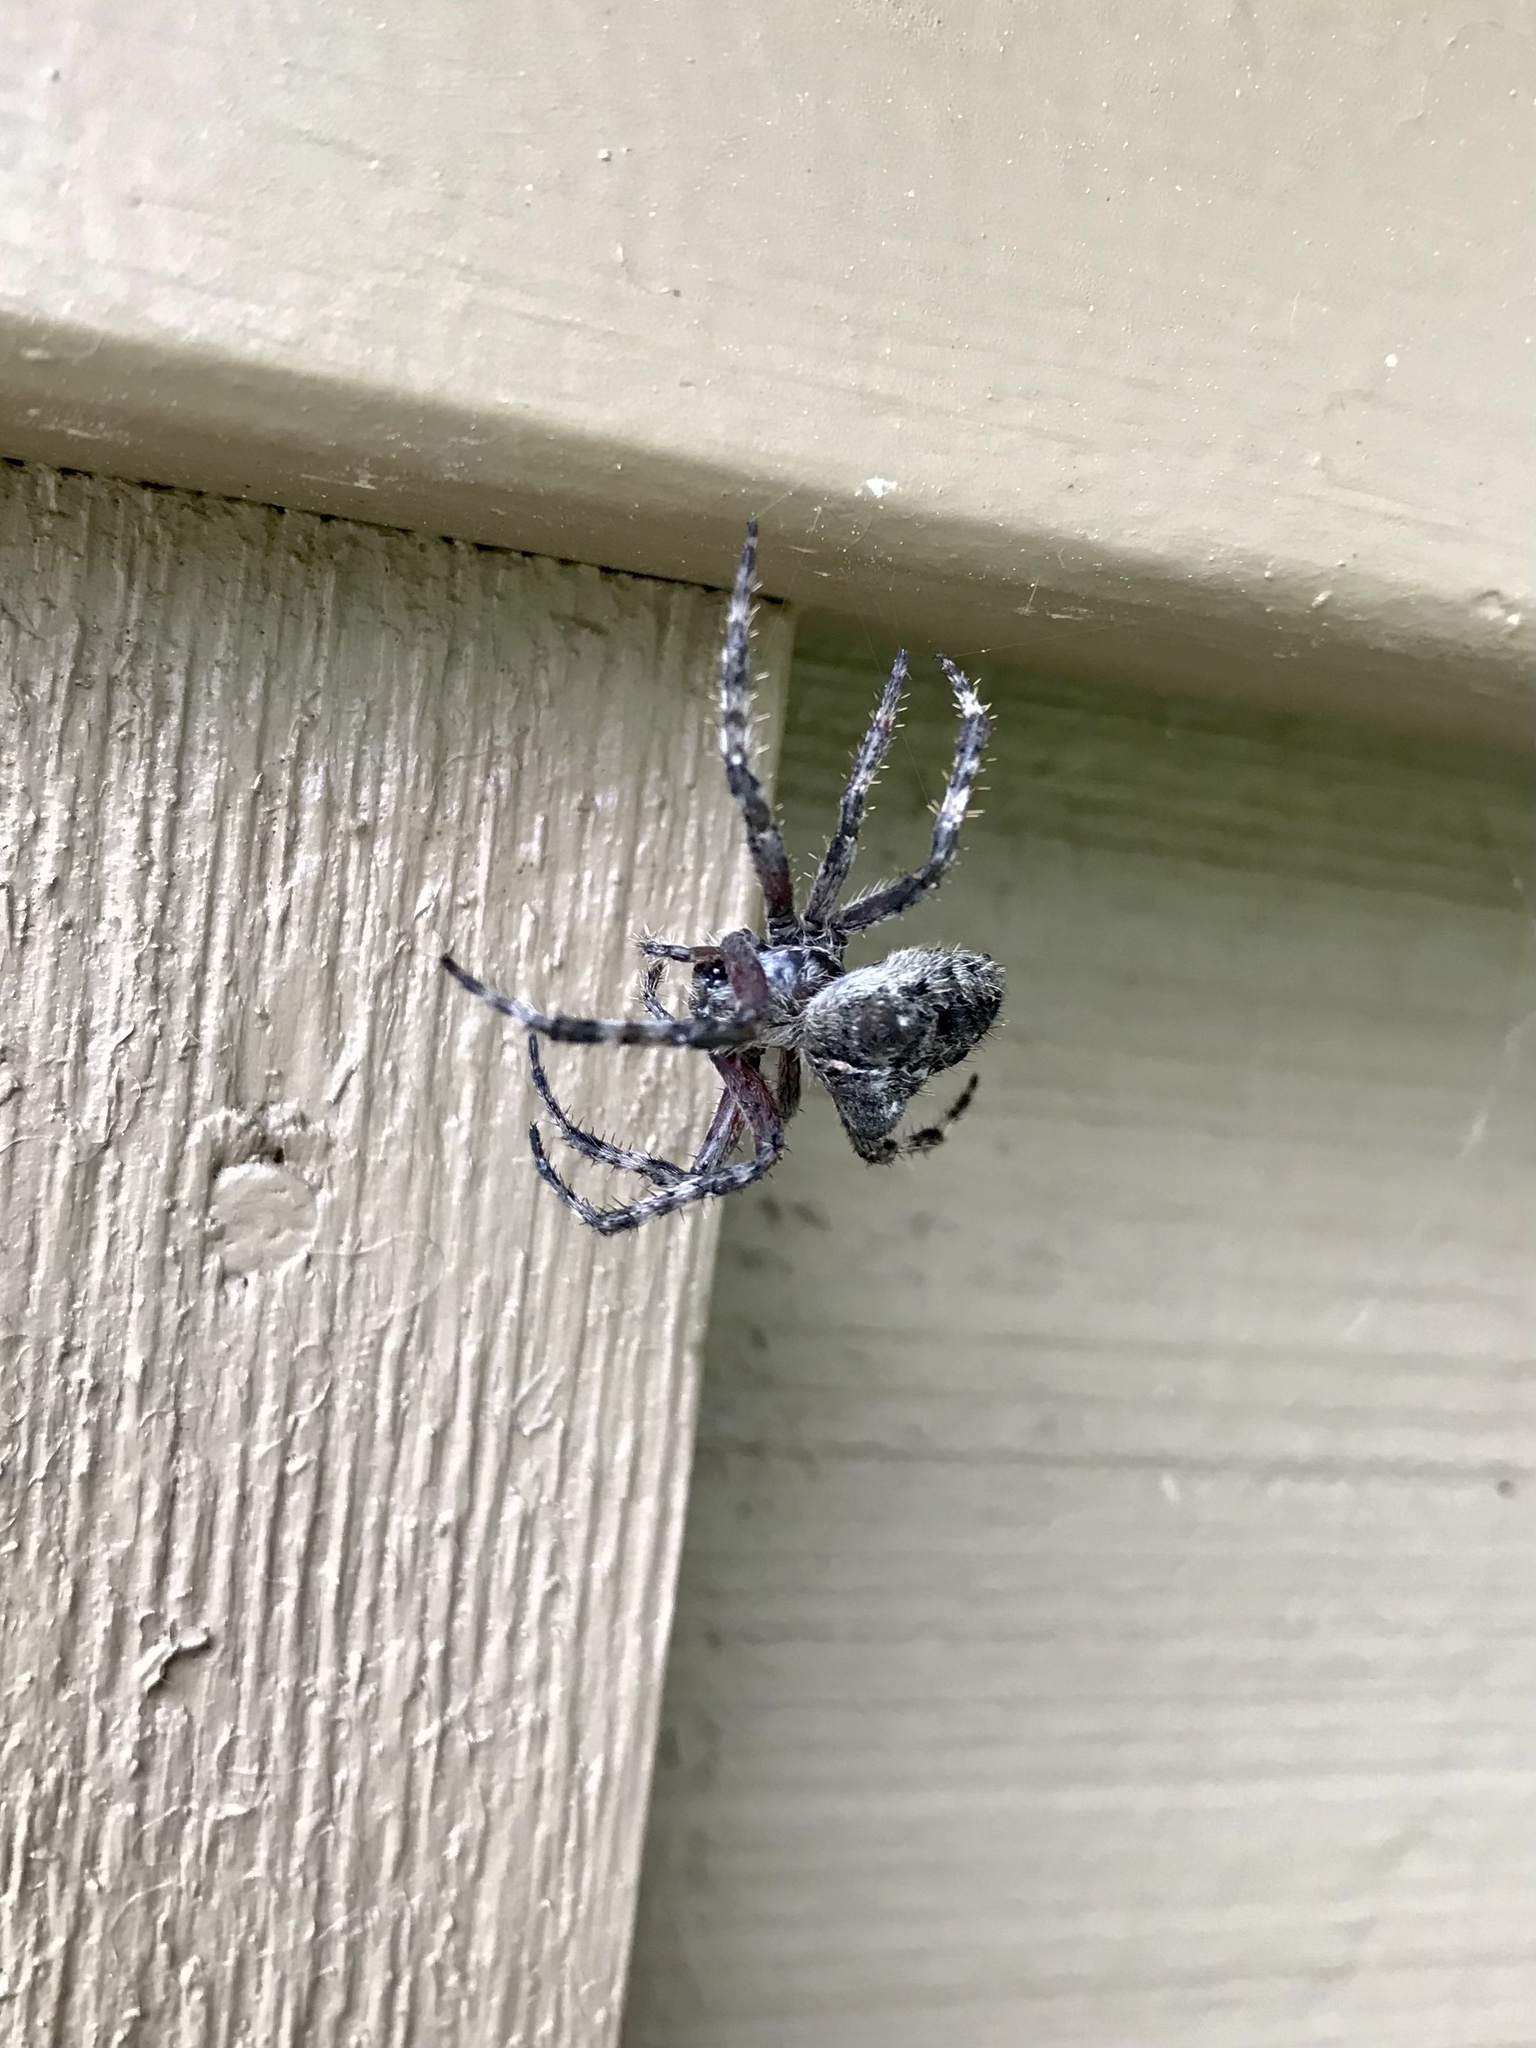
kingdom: Animalia
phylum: Arthropoda
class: Arachnida
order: Araneae
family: Araneidae
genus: Araneus
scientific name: Araneus saevus
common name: Fierce orbweaver
